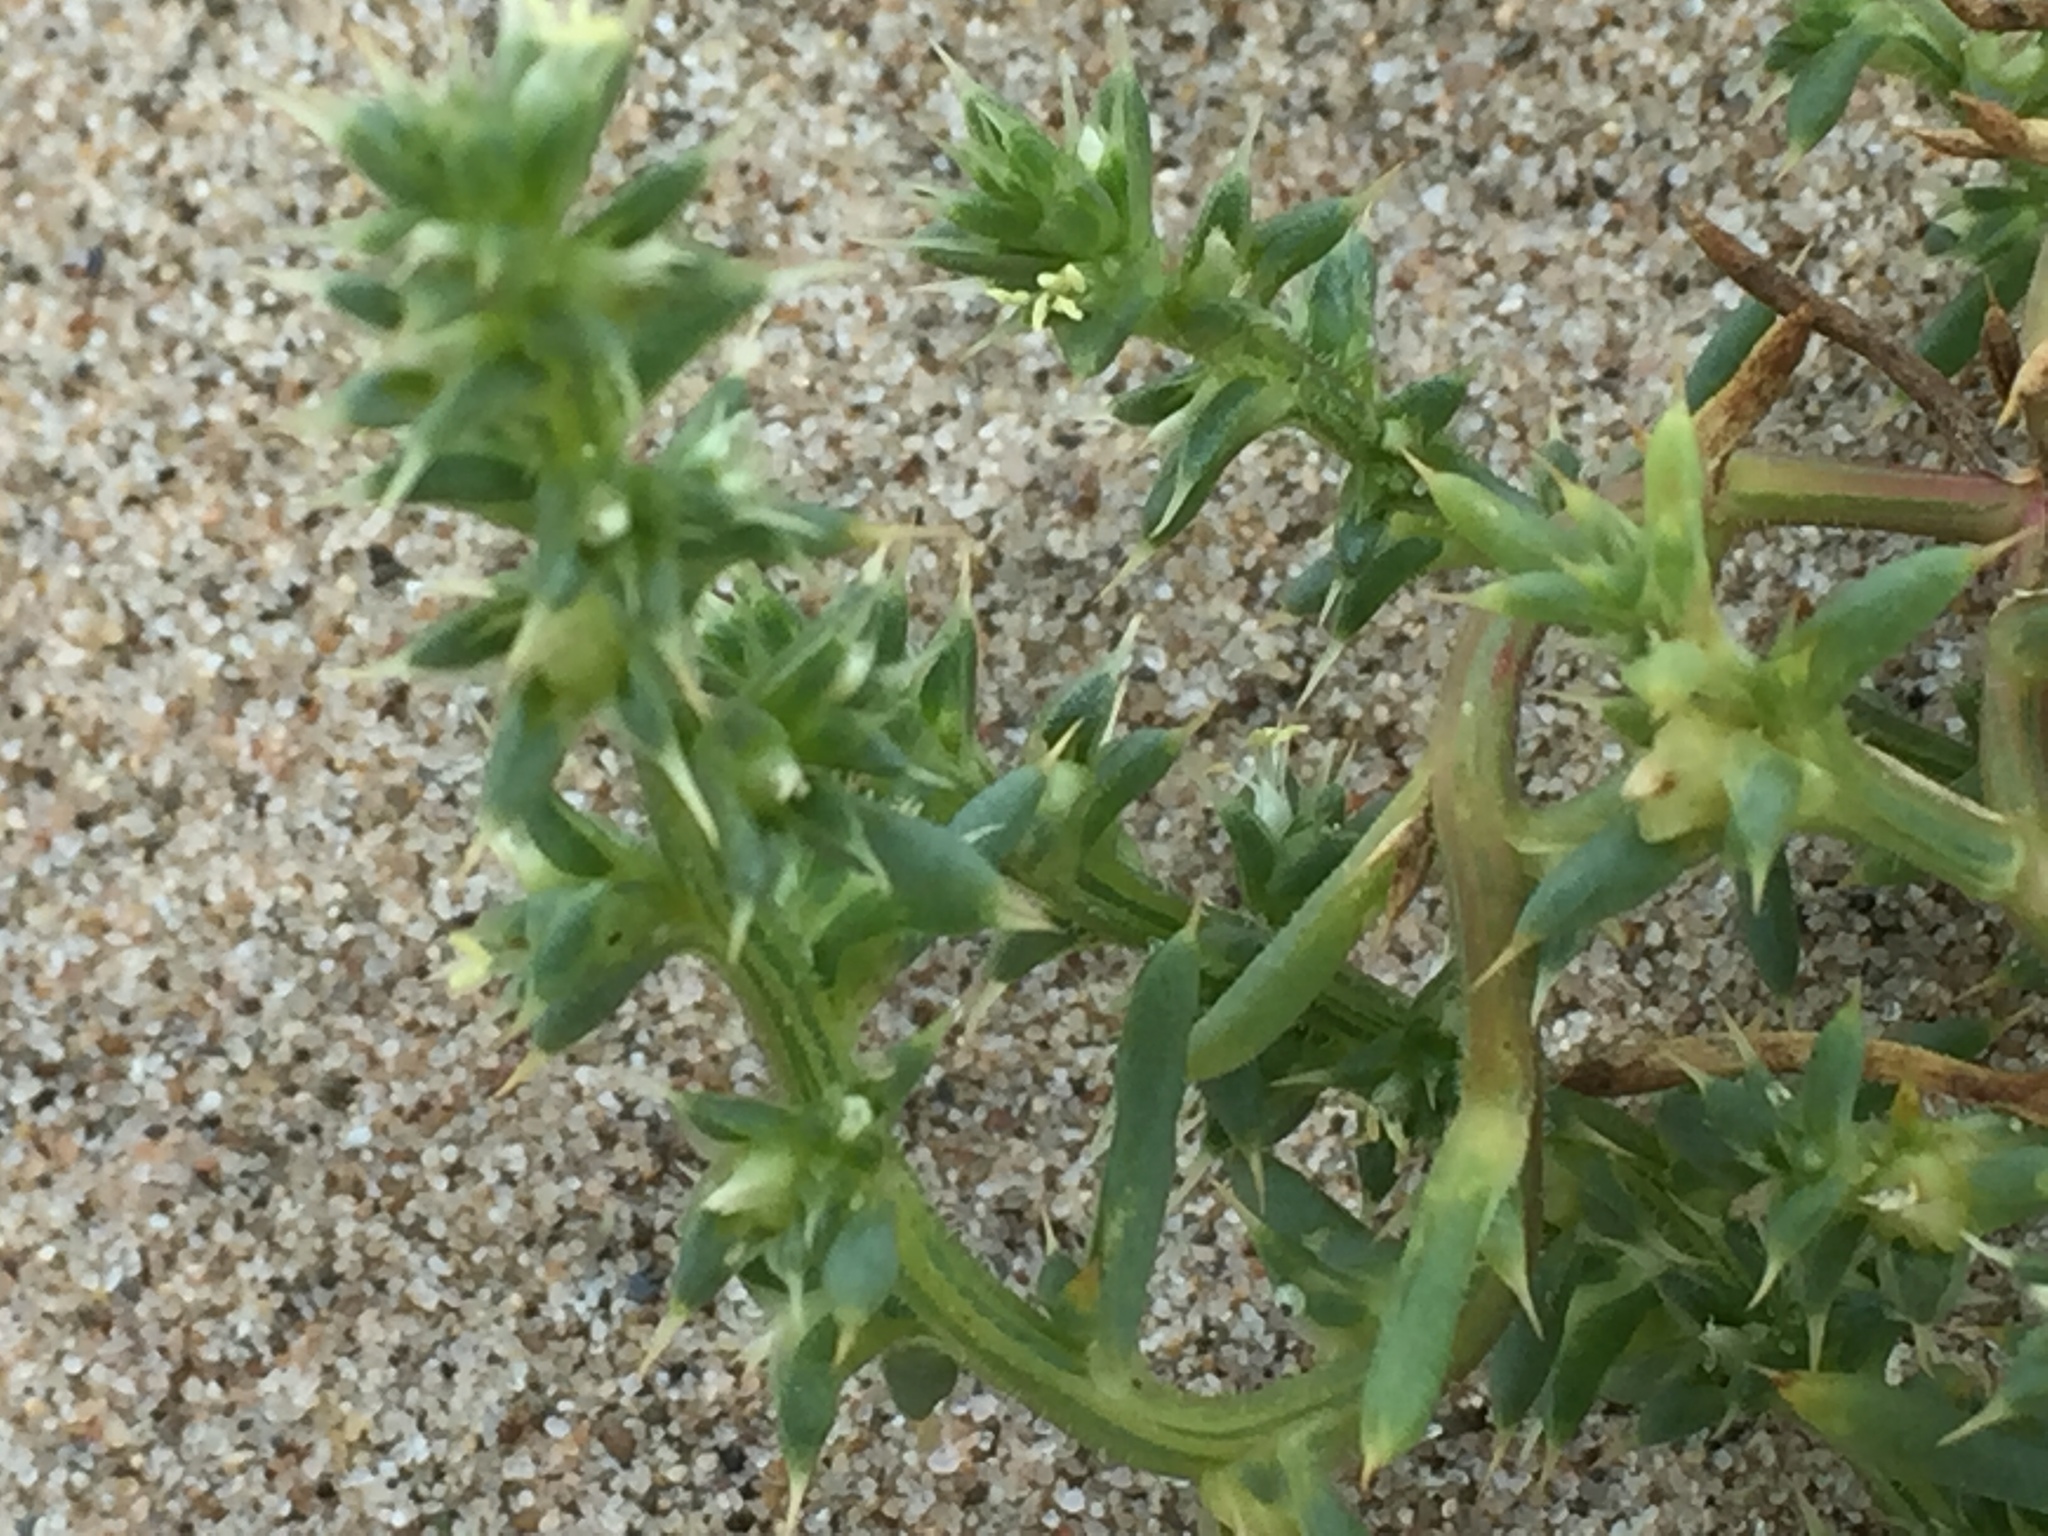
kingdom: Plantae
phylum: Tracheophyta
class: Magnoliopsida
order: Caryophyllales
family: Amaranthaceae
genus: Salsola
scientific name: Salsola kali
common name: Saltwort
